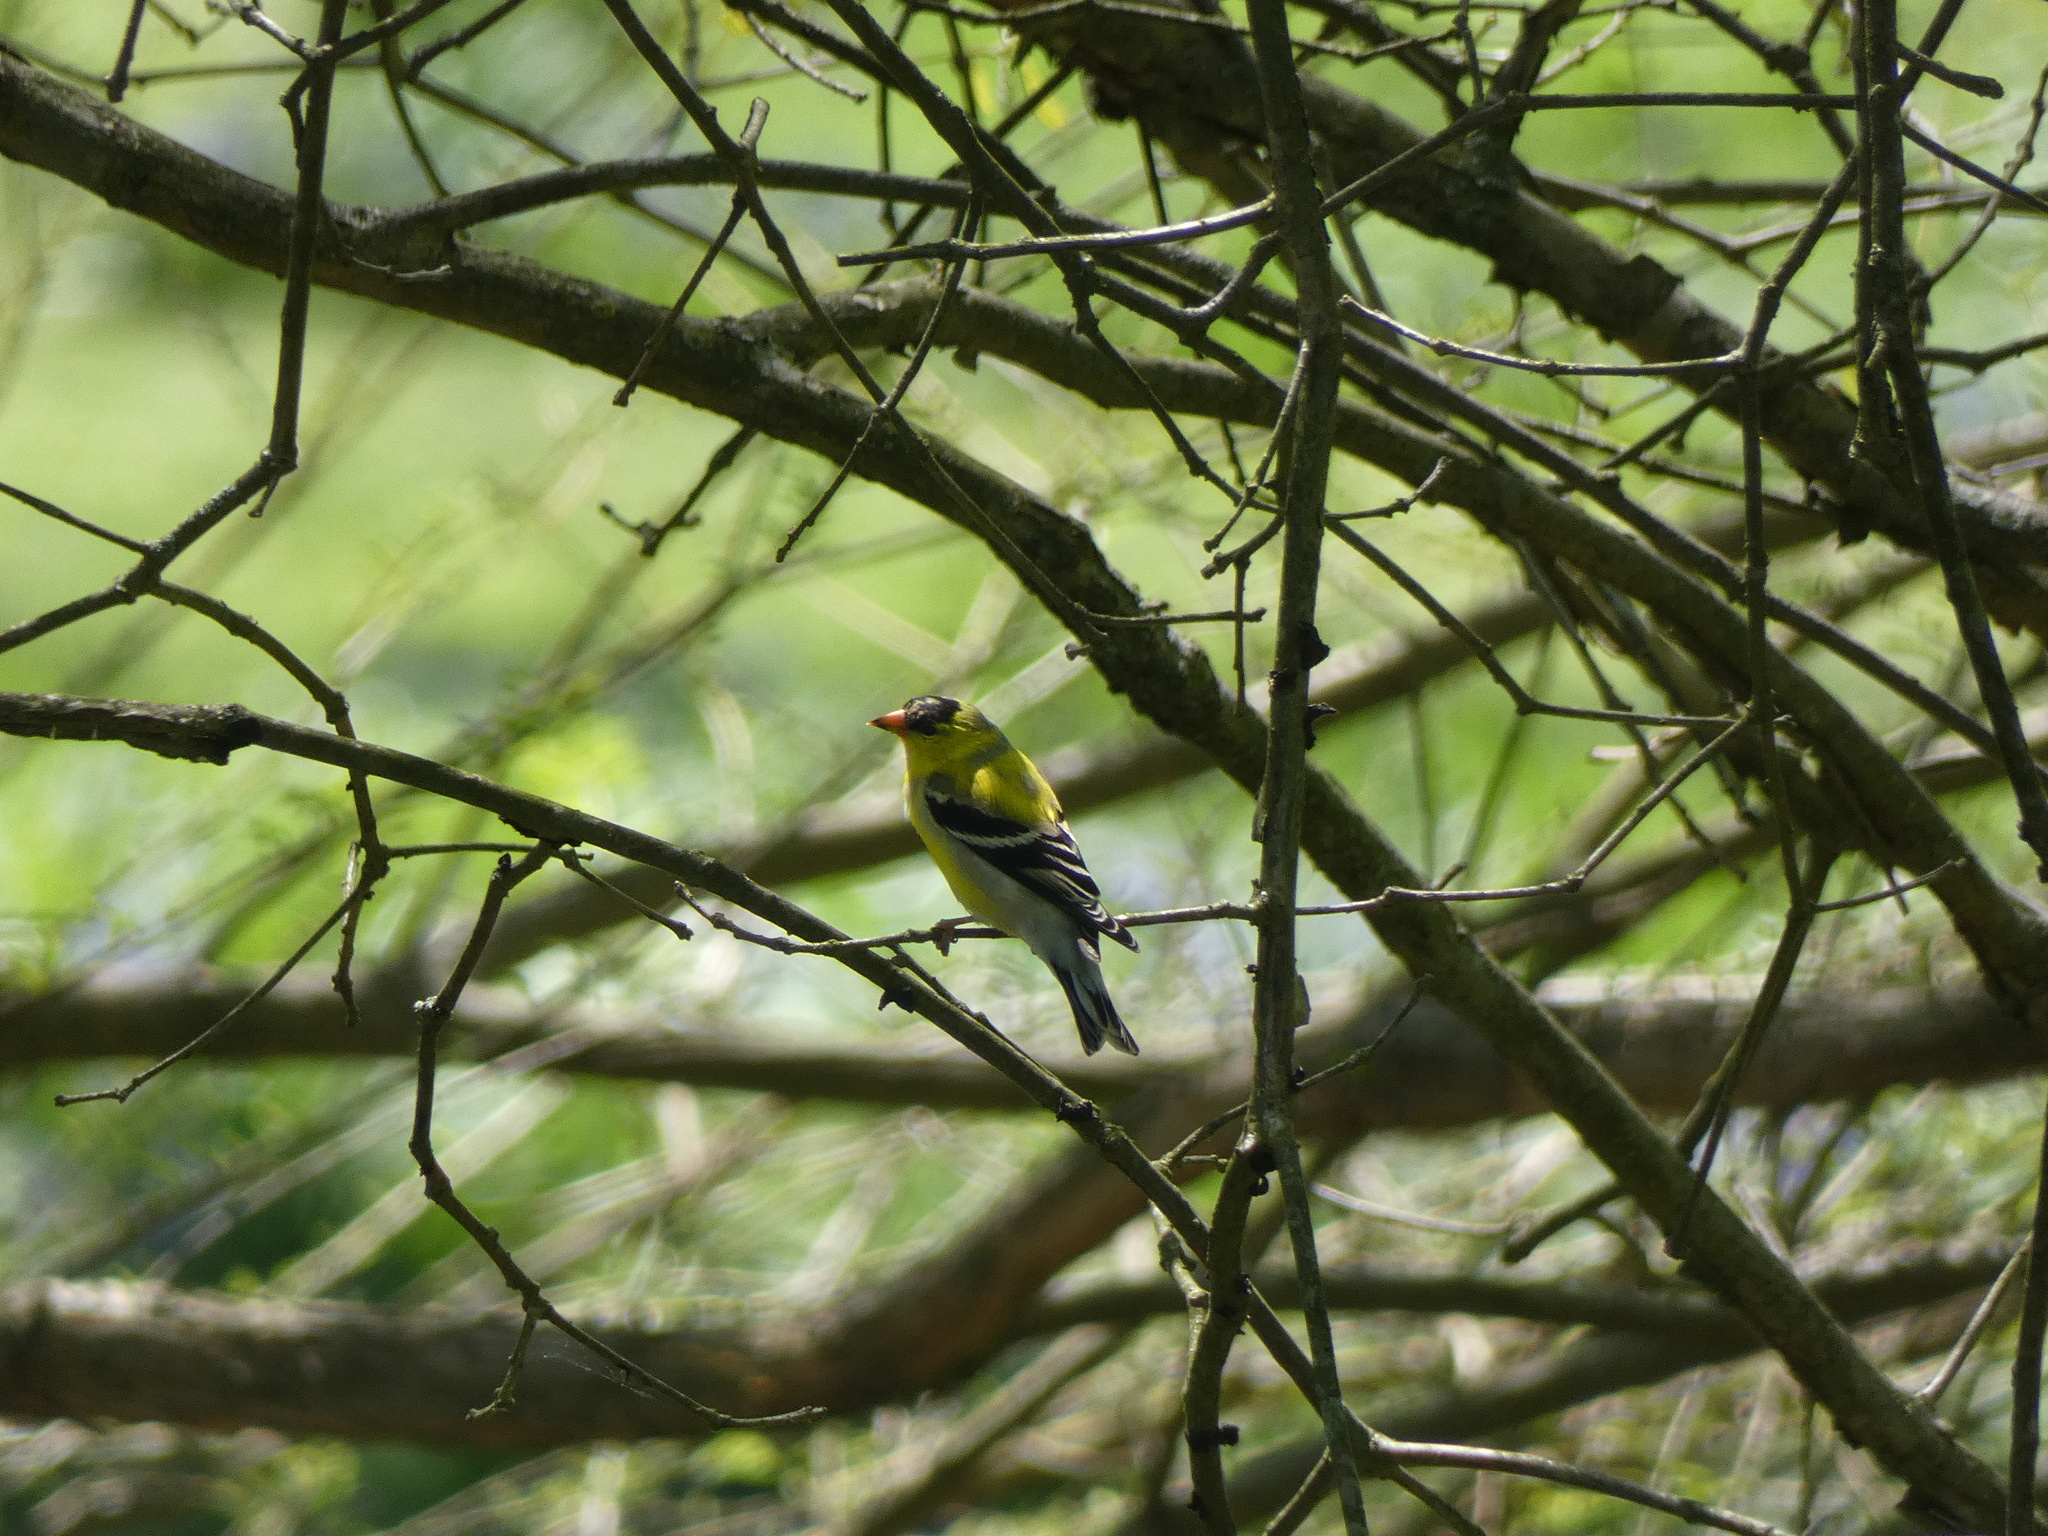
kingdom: Animalia
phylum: Chordata
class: Aves
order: Passeriformes
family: Fringillidae
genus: Spinus
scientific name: Spinus tristis
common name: American goldfinch
